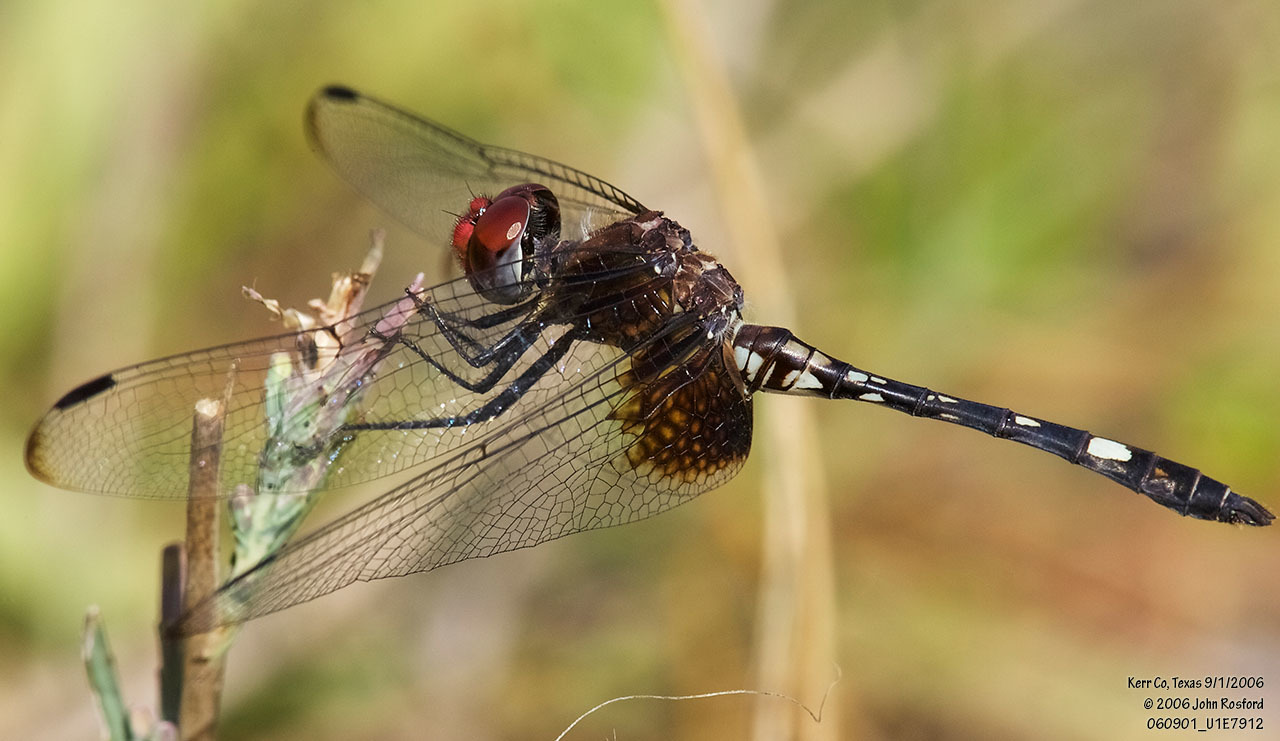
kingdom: Animalia
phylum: Arthropoda
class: Insecta
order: Odonata
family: Libellulidae
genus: Dythemis
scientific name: Dythemis fugax
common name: Checkered setwing
